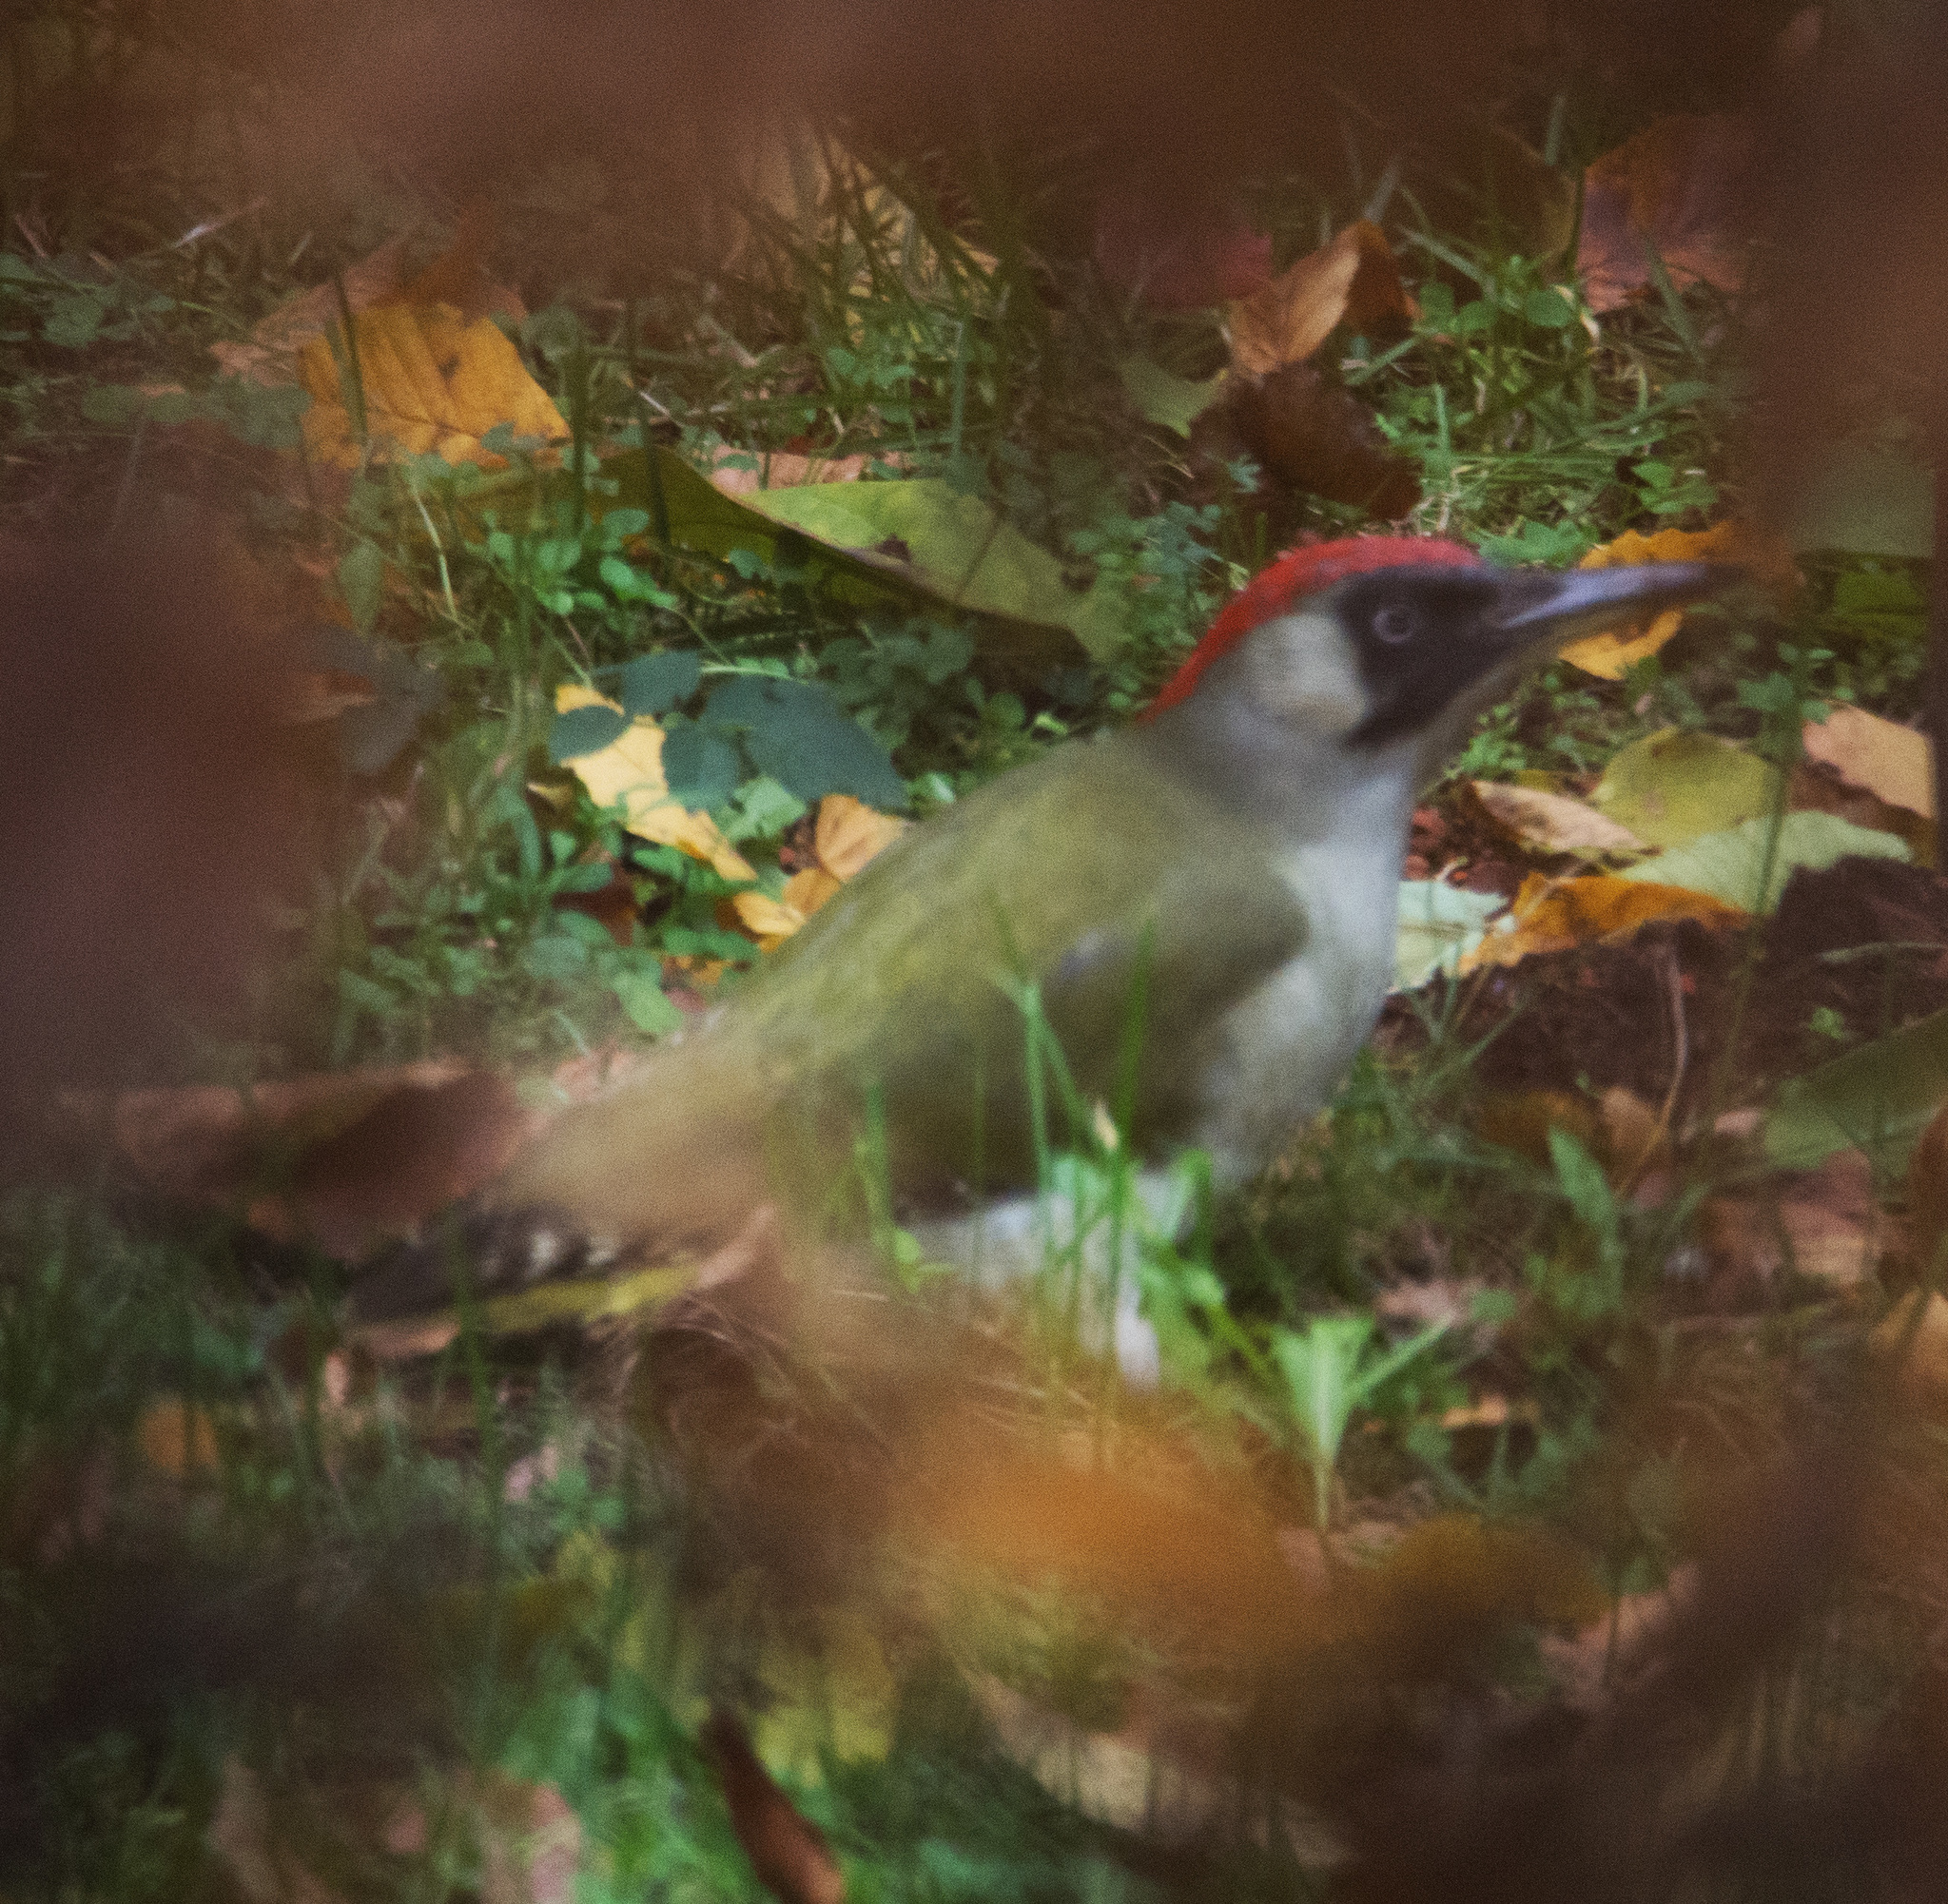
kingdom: Animalia
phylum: Chordata
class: Aves
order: Piciformes
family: Picidae
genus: Picus
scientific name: Picus viridis
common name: European green woodpecker
